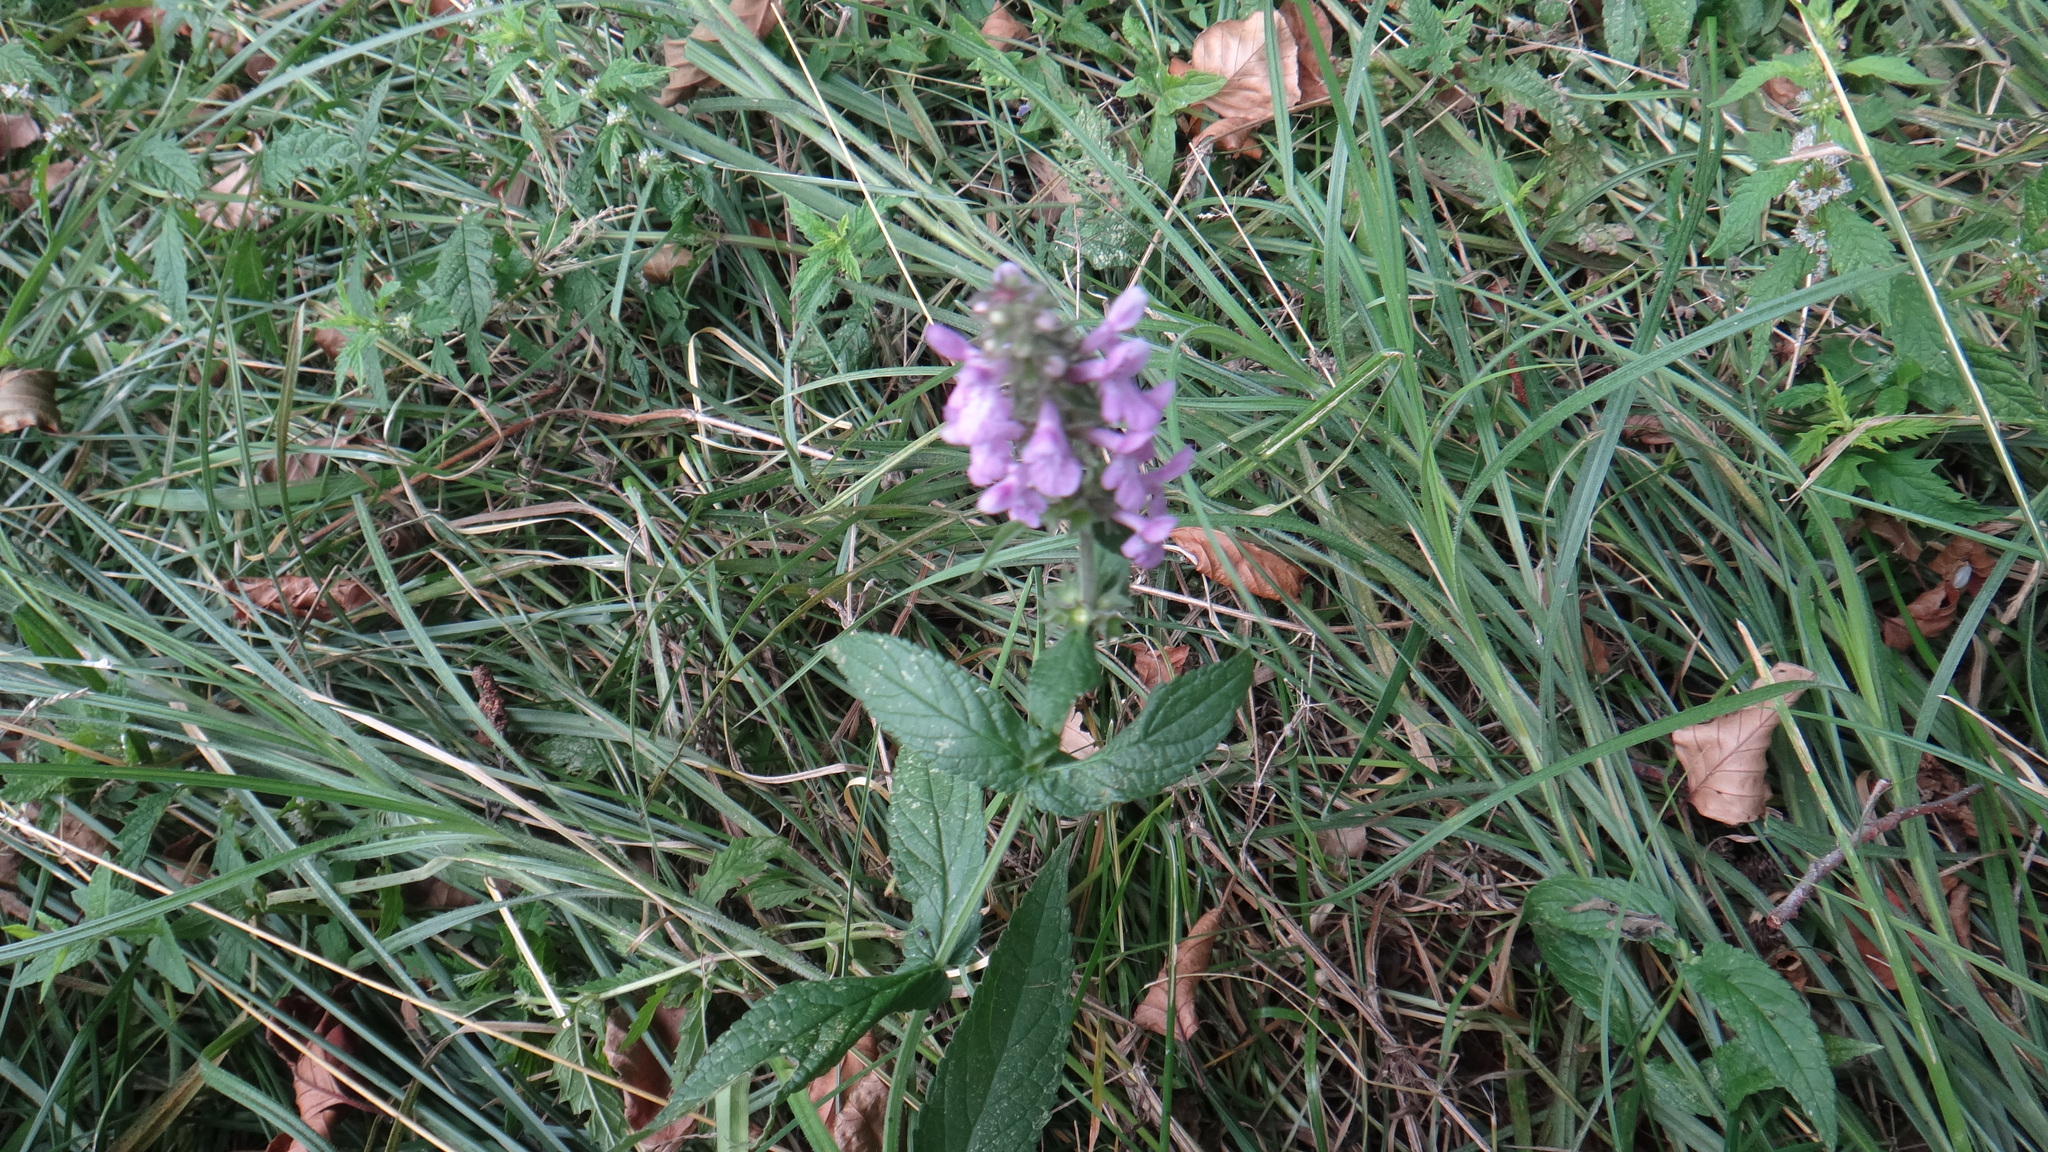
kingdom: Plantae
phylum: Tracheophyta
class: Magnoliopsida
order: Lamiales
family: Lamiaceae
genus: Stachys
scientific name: Stachys palustris
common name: Marsh woundwort
